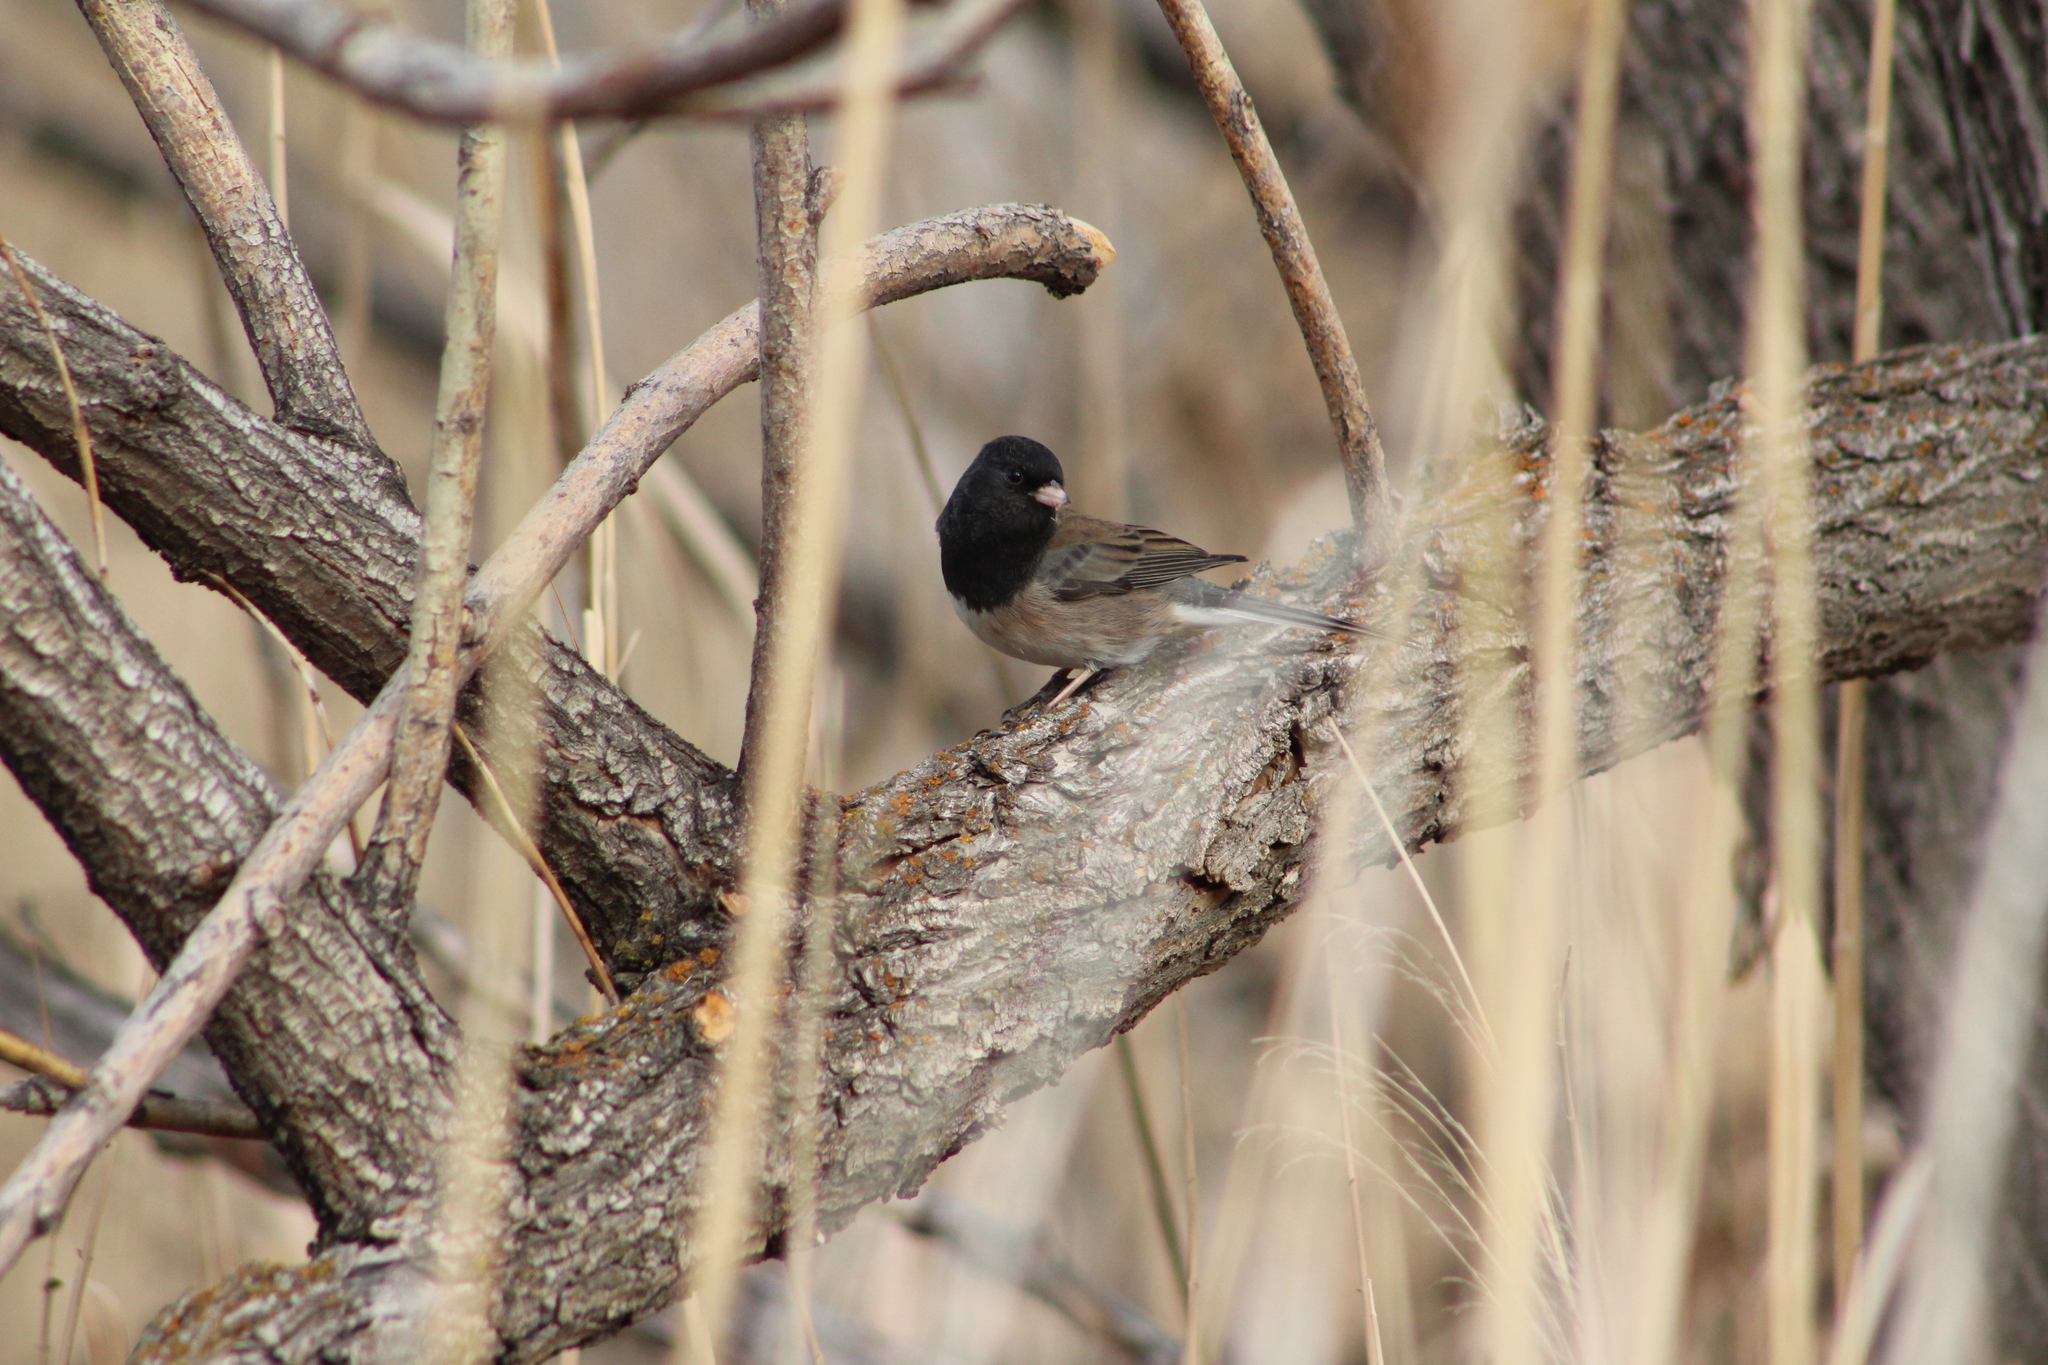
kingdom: Animalia
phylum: Chordata
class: Aves
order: Passeriformes
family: Passerellidae
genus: Junco
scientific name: Junco hyemalis
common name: Dark-eyed junco
